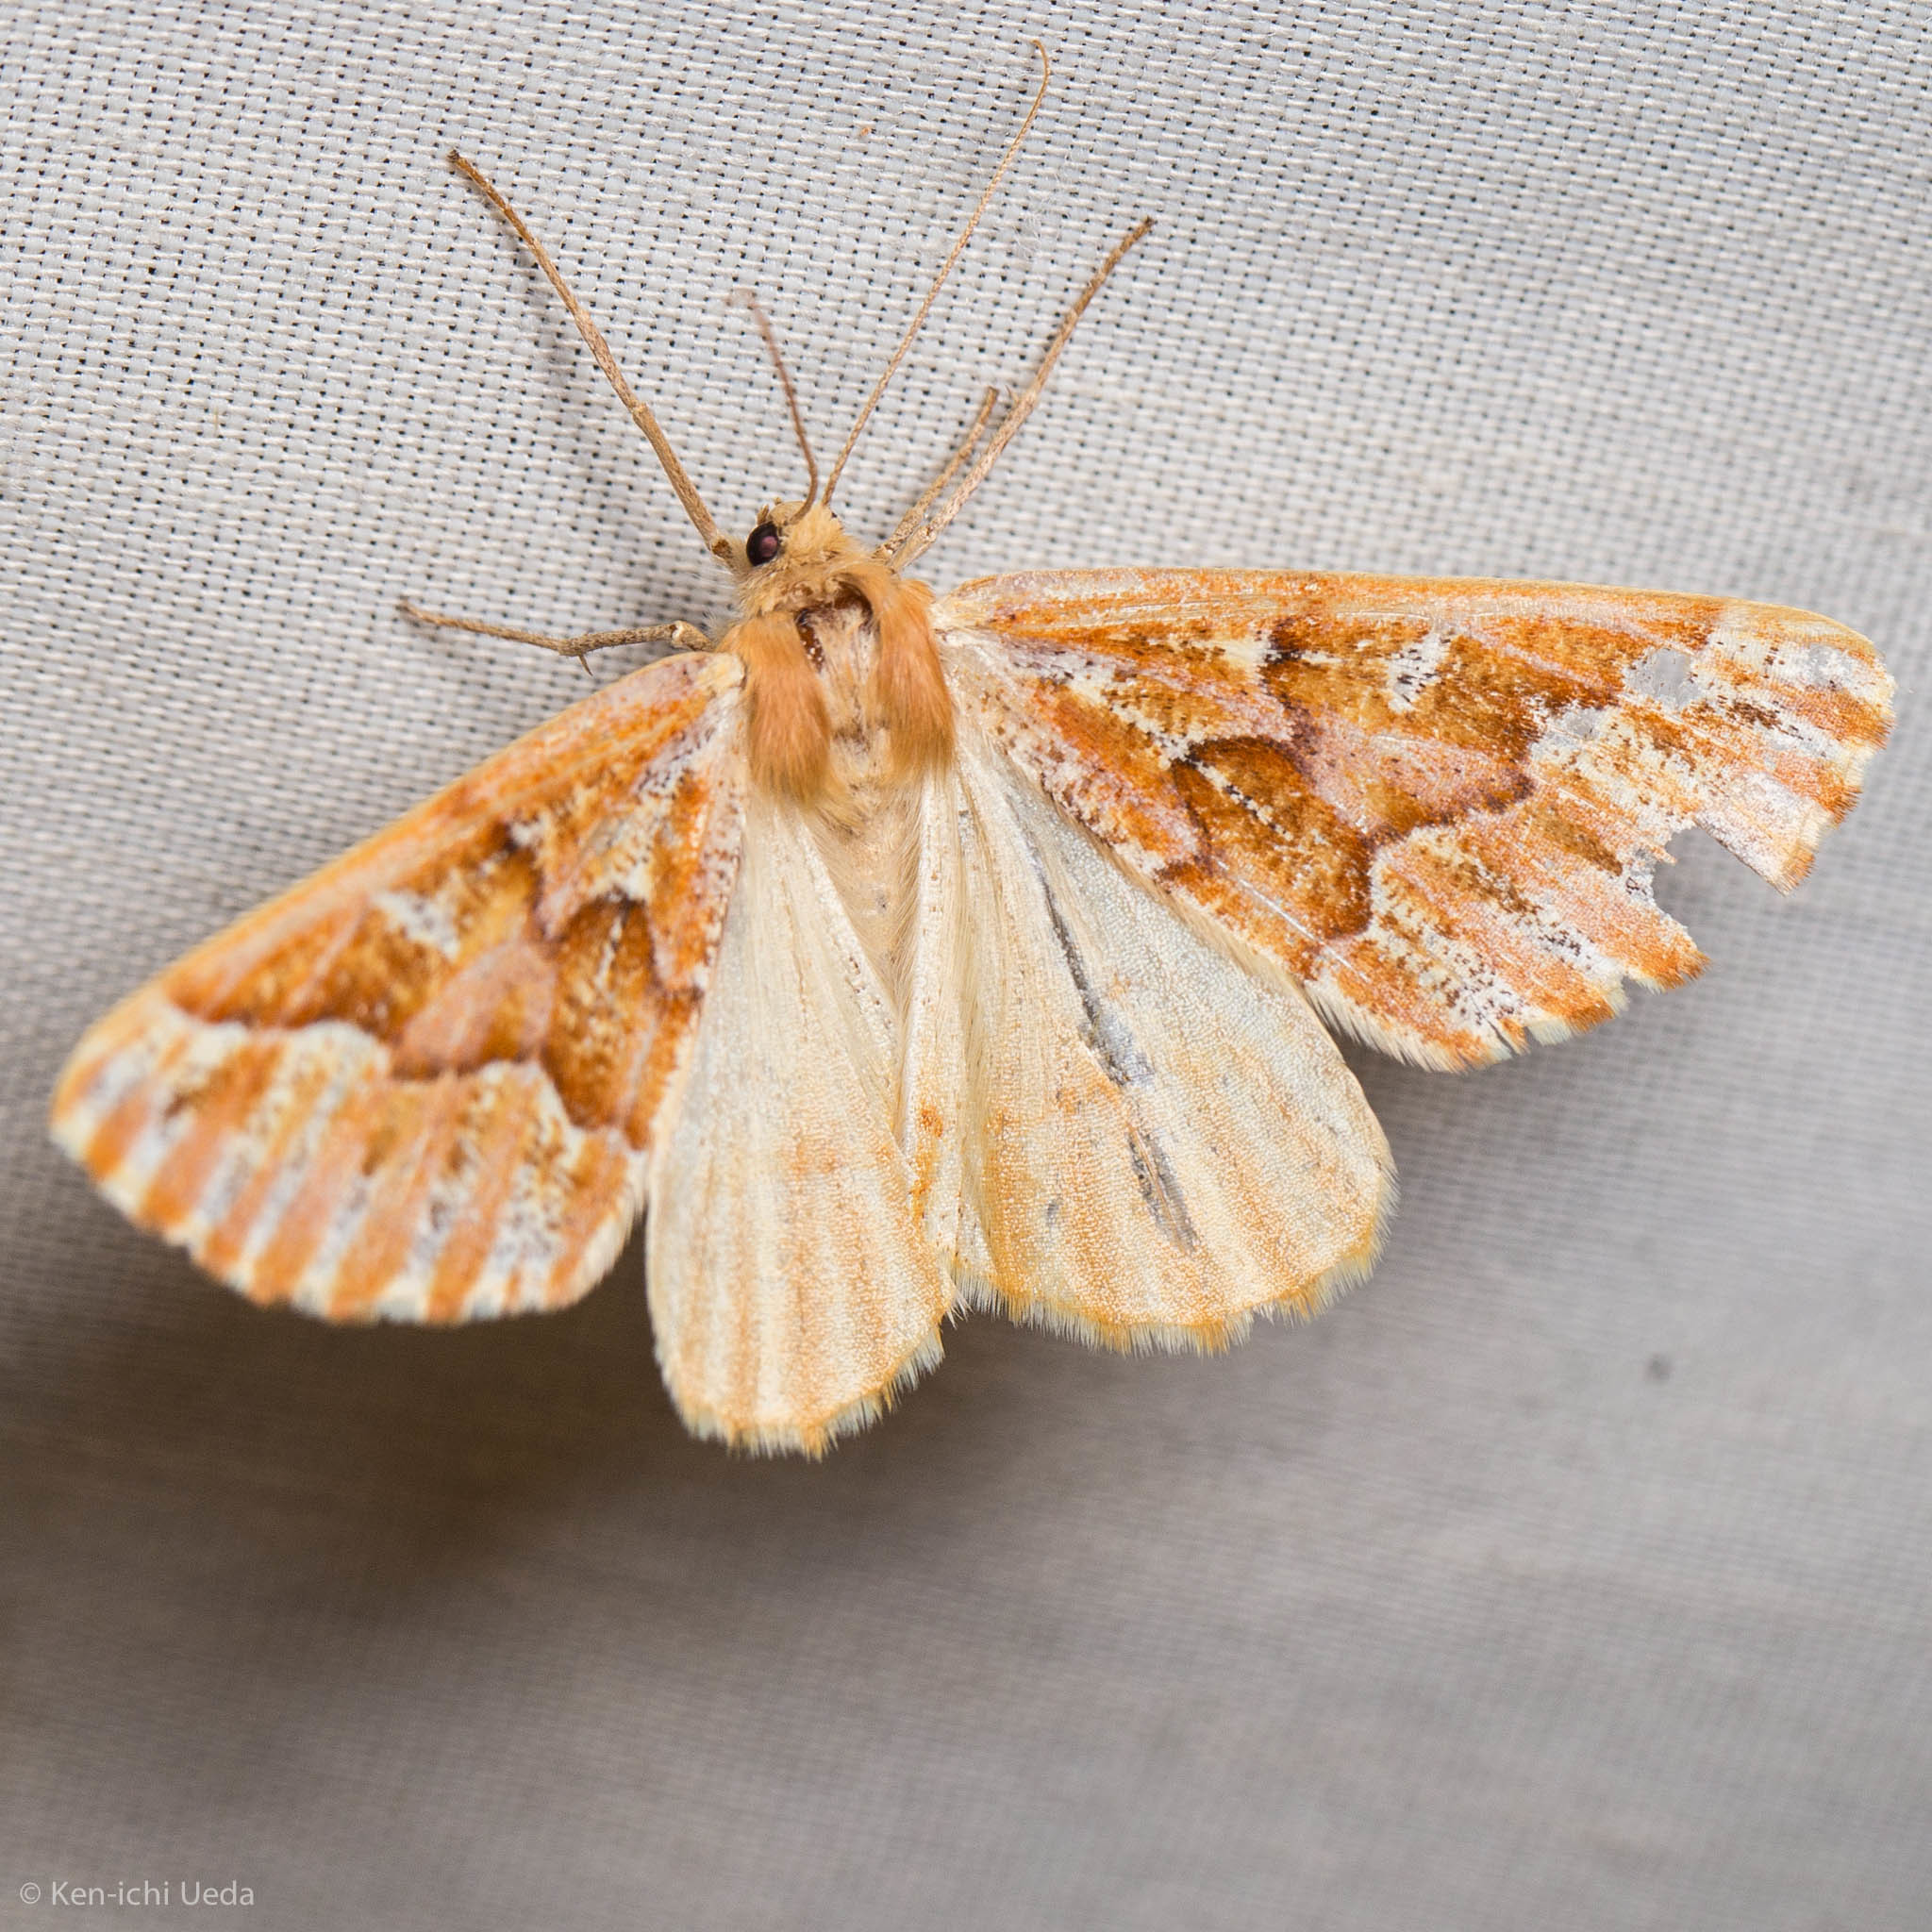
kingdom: Animalia
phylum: Arthropoda
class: Insecta
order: Lepidoptera
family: Geometridae
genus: Caripeta
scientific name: Caripeta aequaliaria
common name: Red girdle moth
